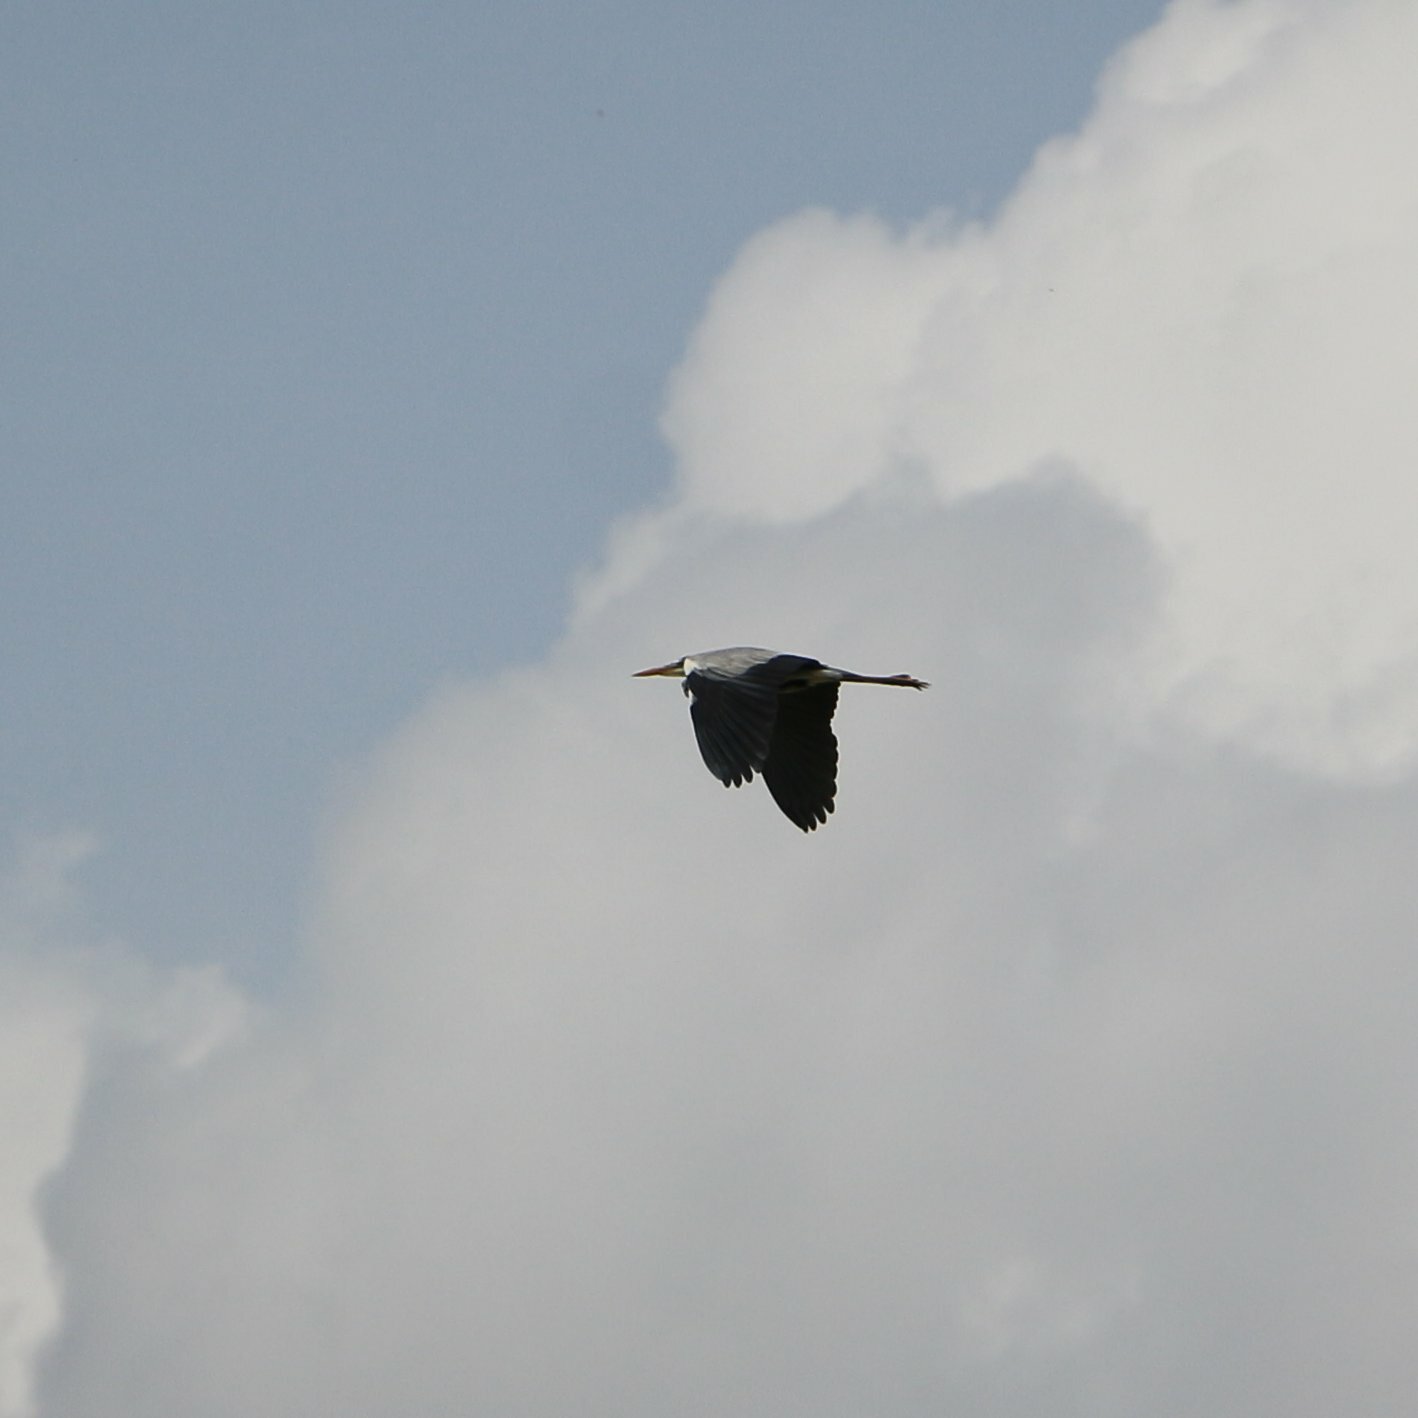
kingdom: Animalia
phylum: Chordata
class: Aves
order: Pelecaniformes
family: Ardeidae
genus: Ardea
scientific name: Ardea cinerea
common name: Grey heron
